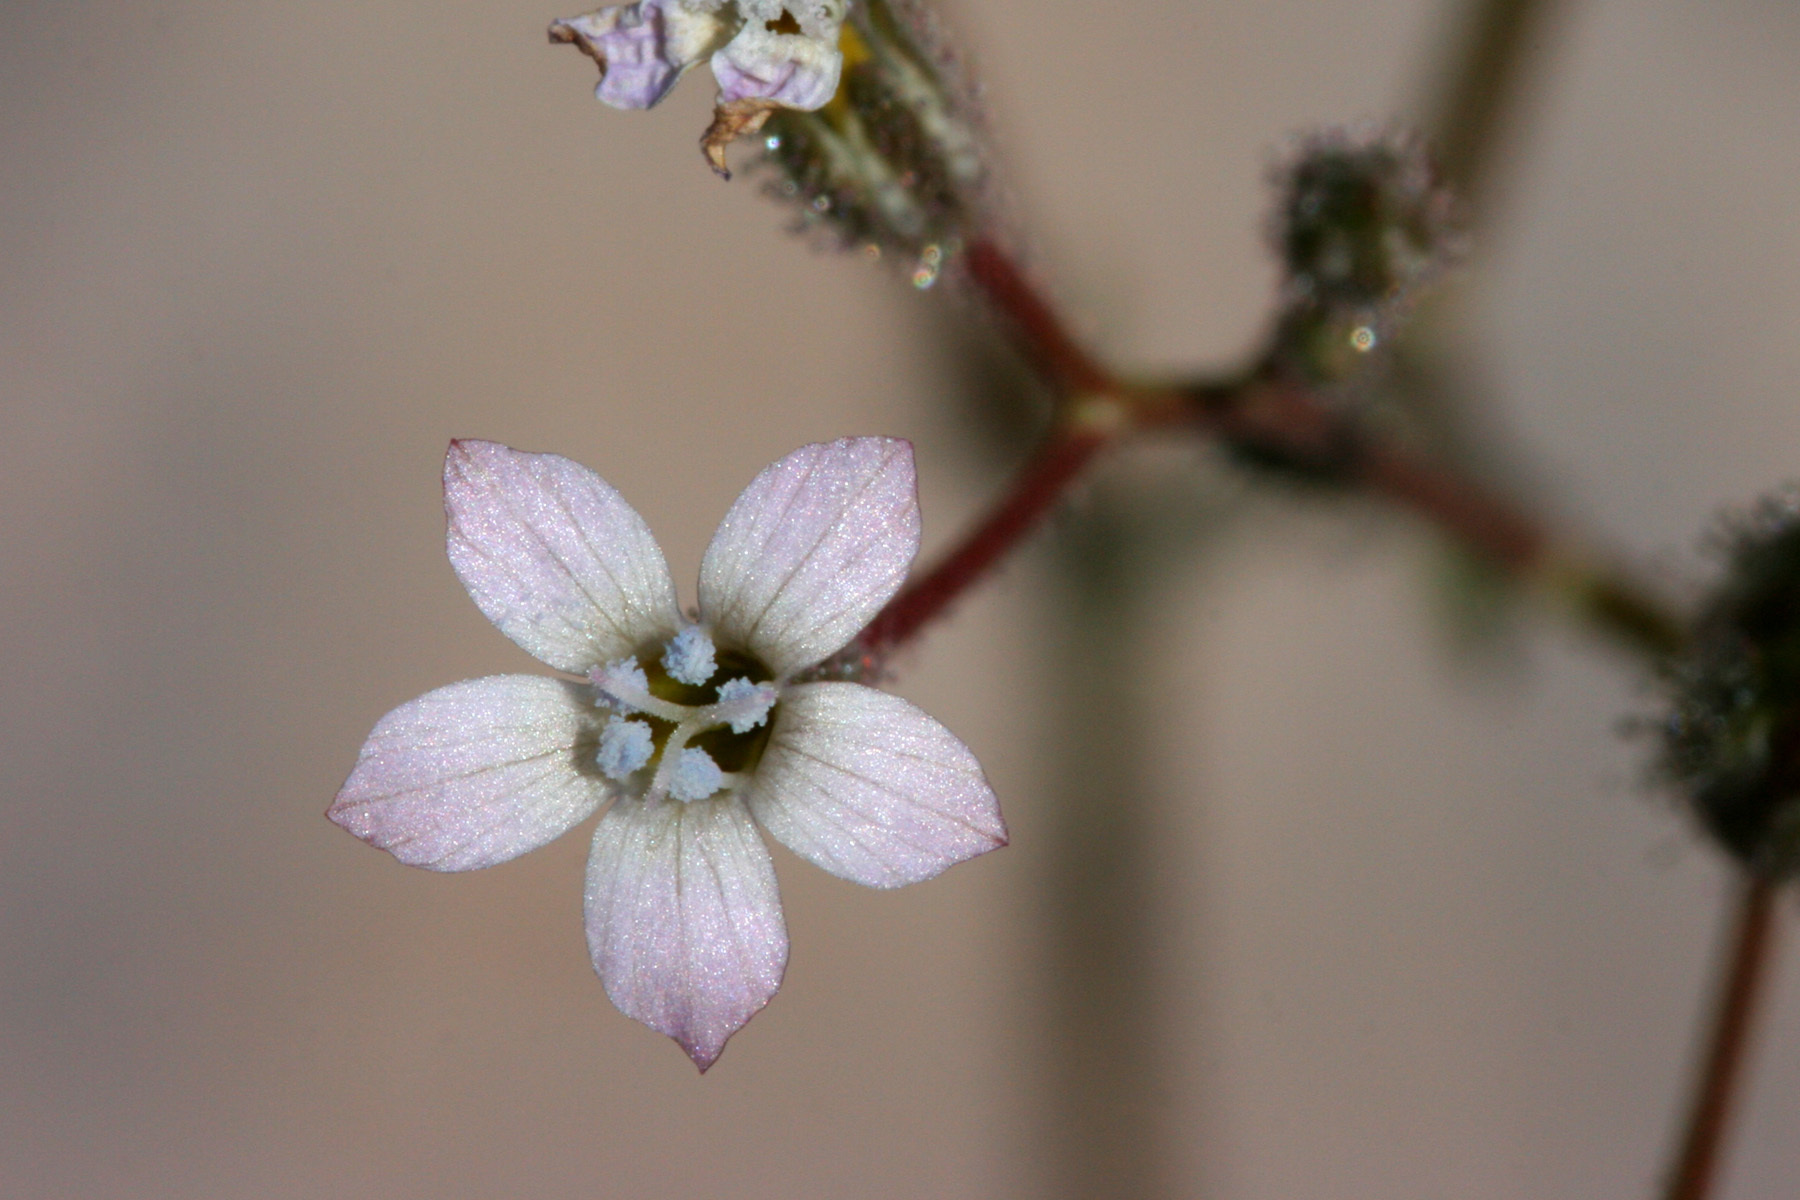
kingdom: Plantae
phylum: Tracheophyta
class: Magnoliopsida
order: Ericales
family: Polemoniaceae
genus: Gilia
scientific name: Gilia stellata
